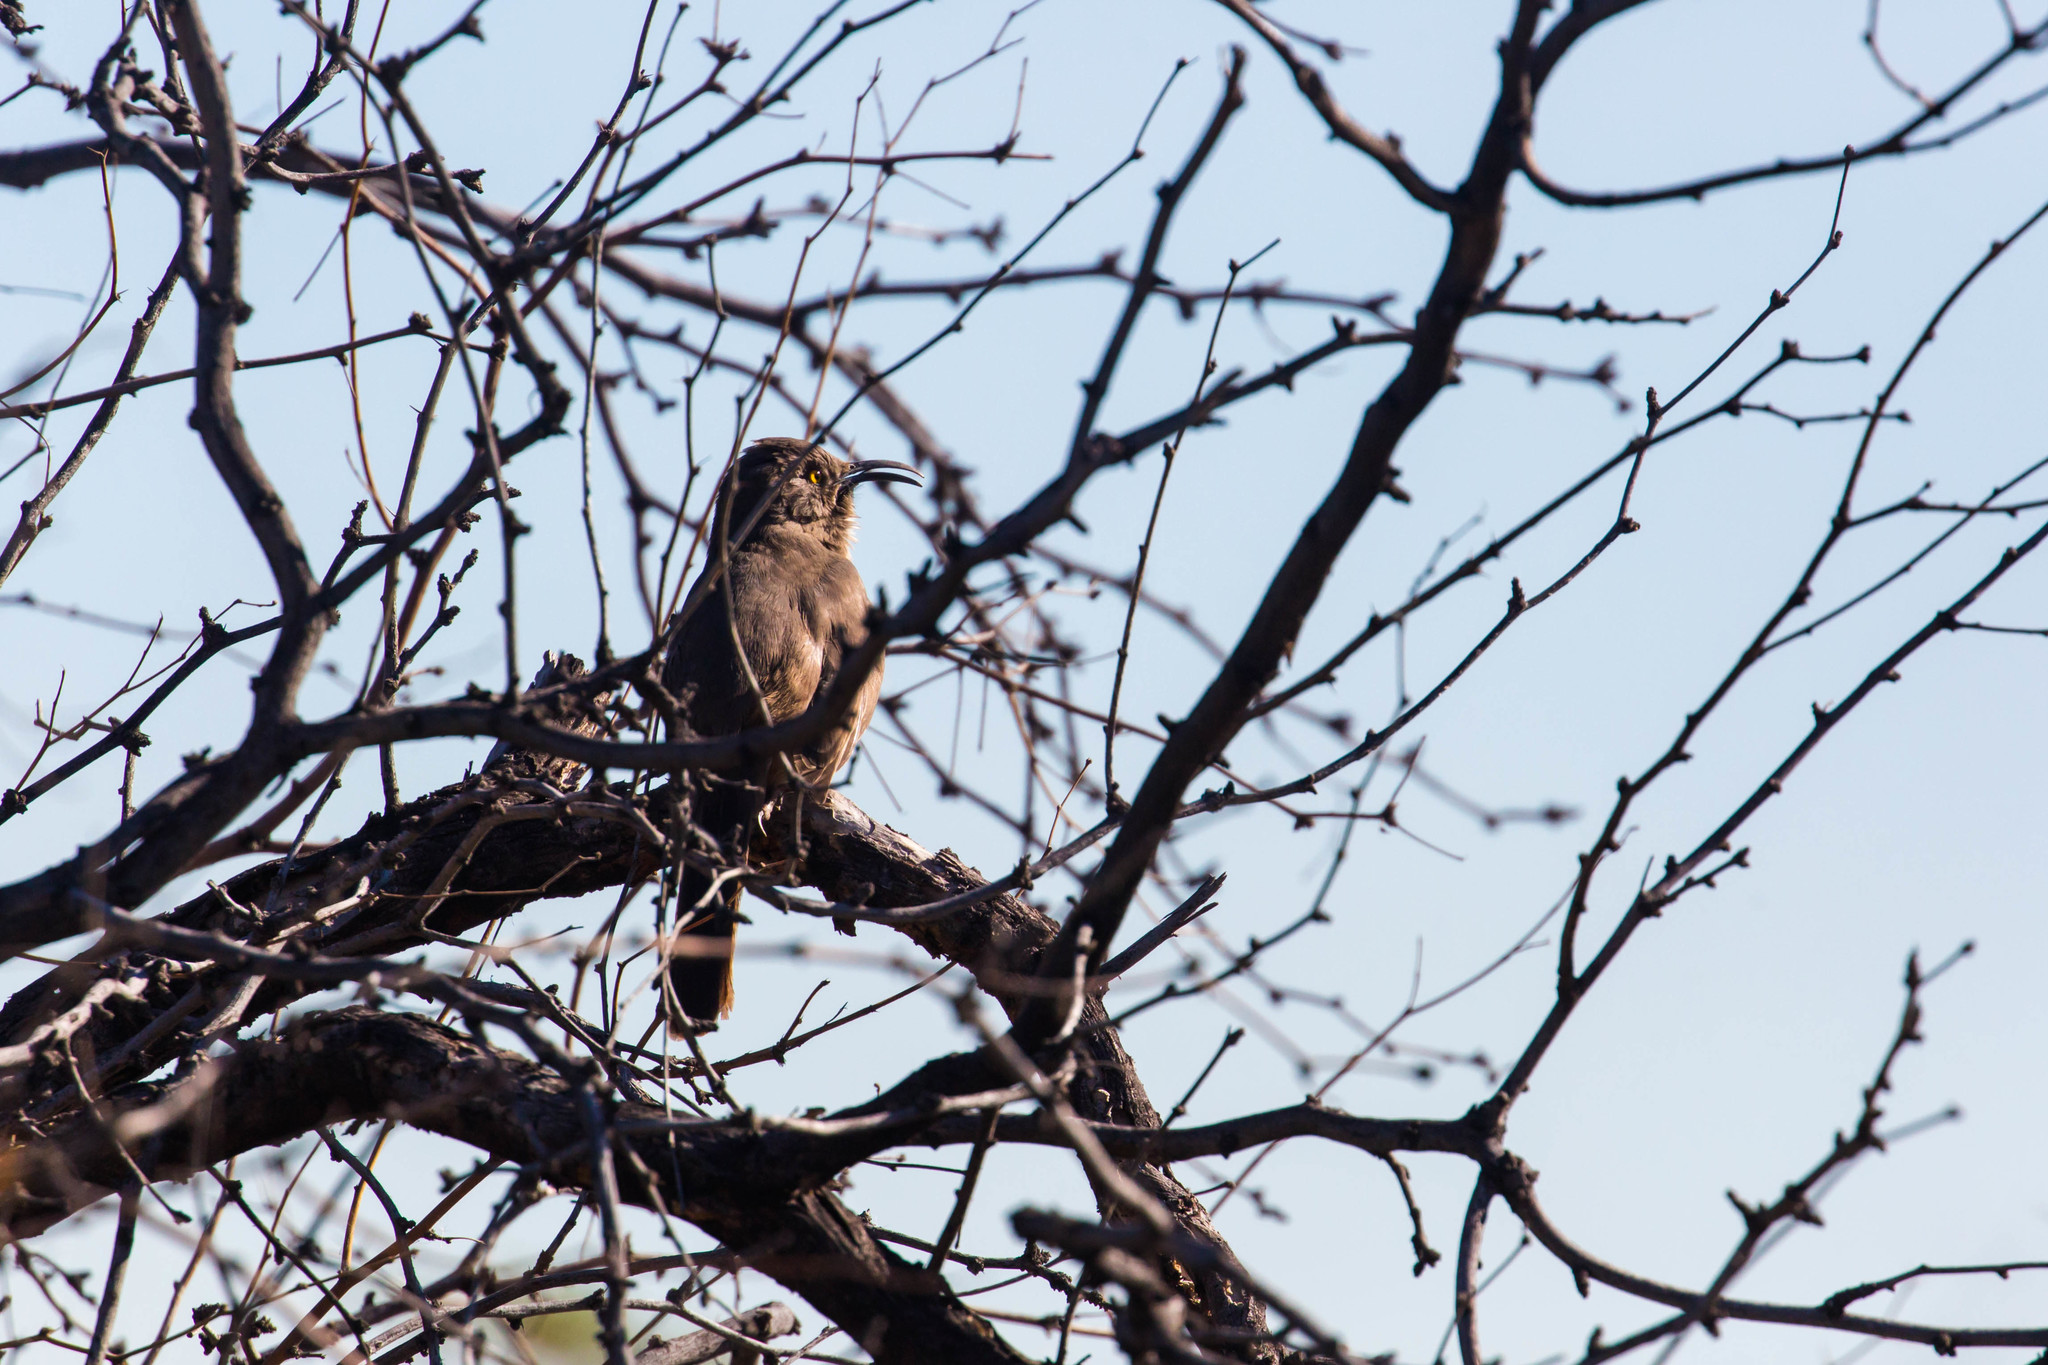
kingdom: Animalia
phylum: Chordata
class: Aves
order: Passeriformes
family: Mimidae
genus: Toxostoma
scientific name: Toxostoma crissale
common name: Crissal thrasher
